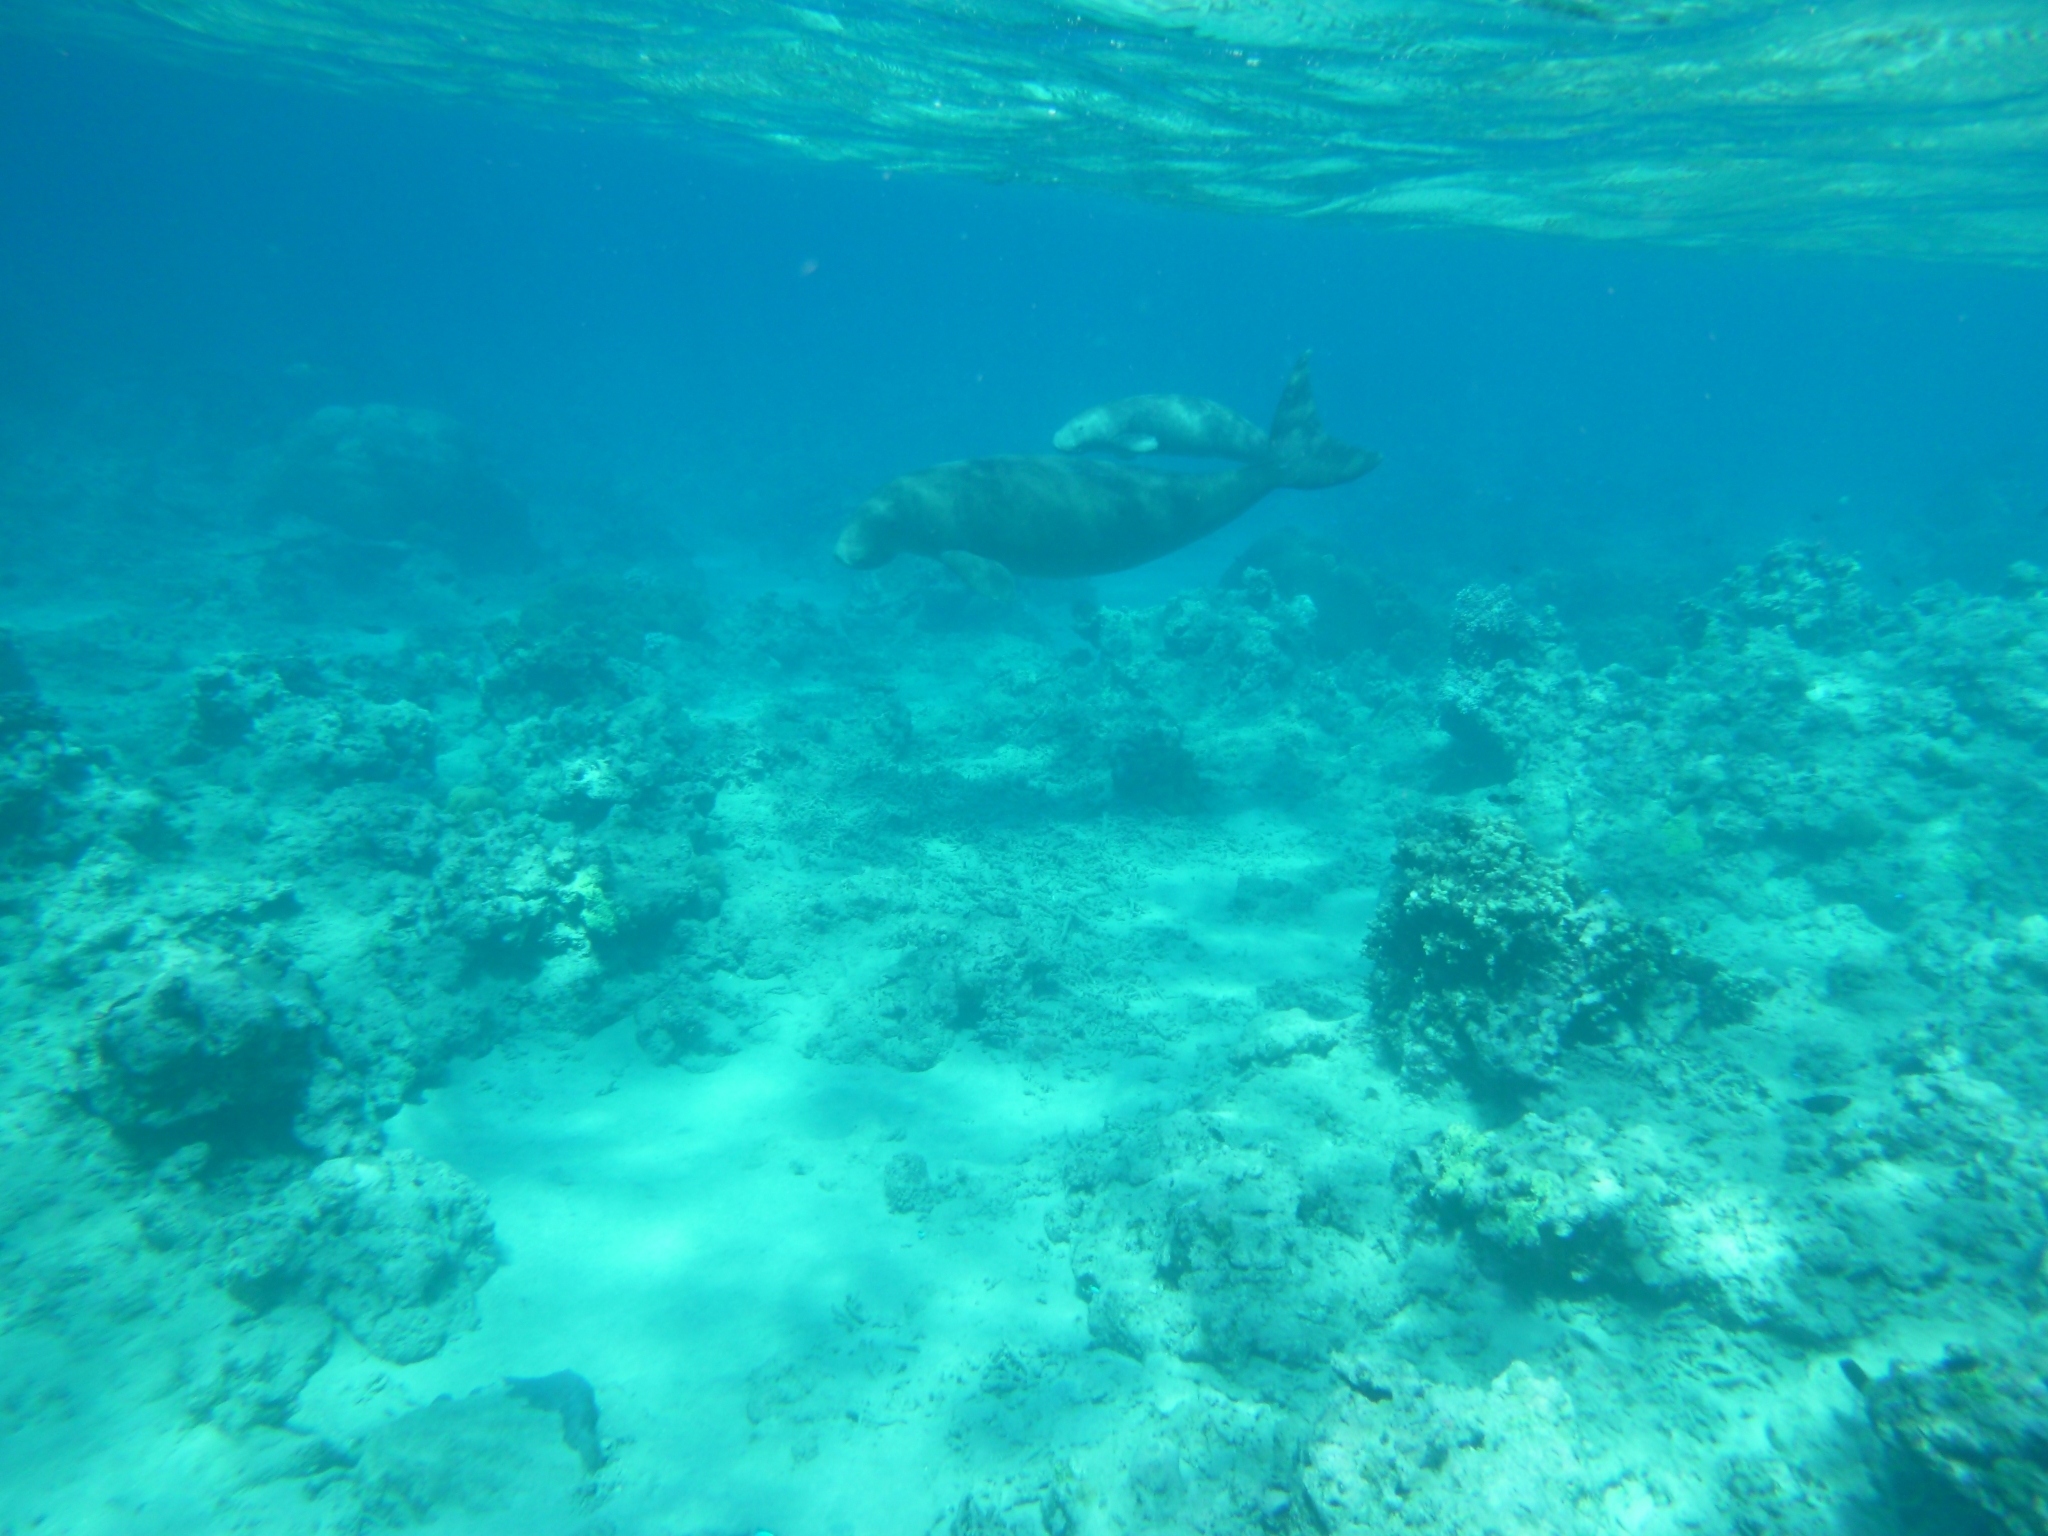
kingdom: Animalia
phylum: Chordata
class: Mammalia
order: Sirenia
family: Dugongidae
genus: Dugong
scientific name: Dugong dugon
